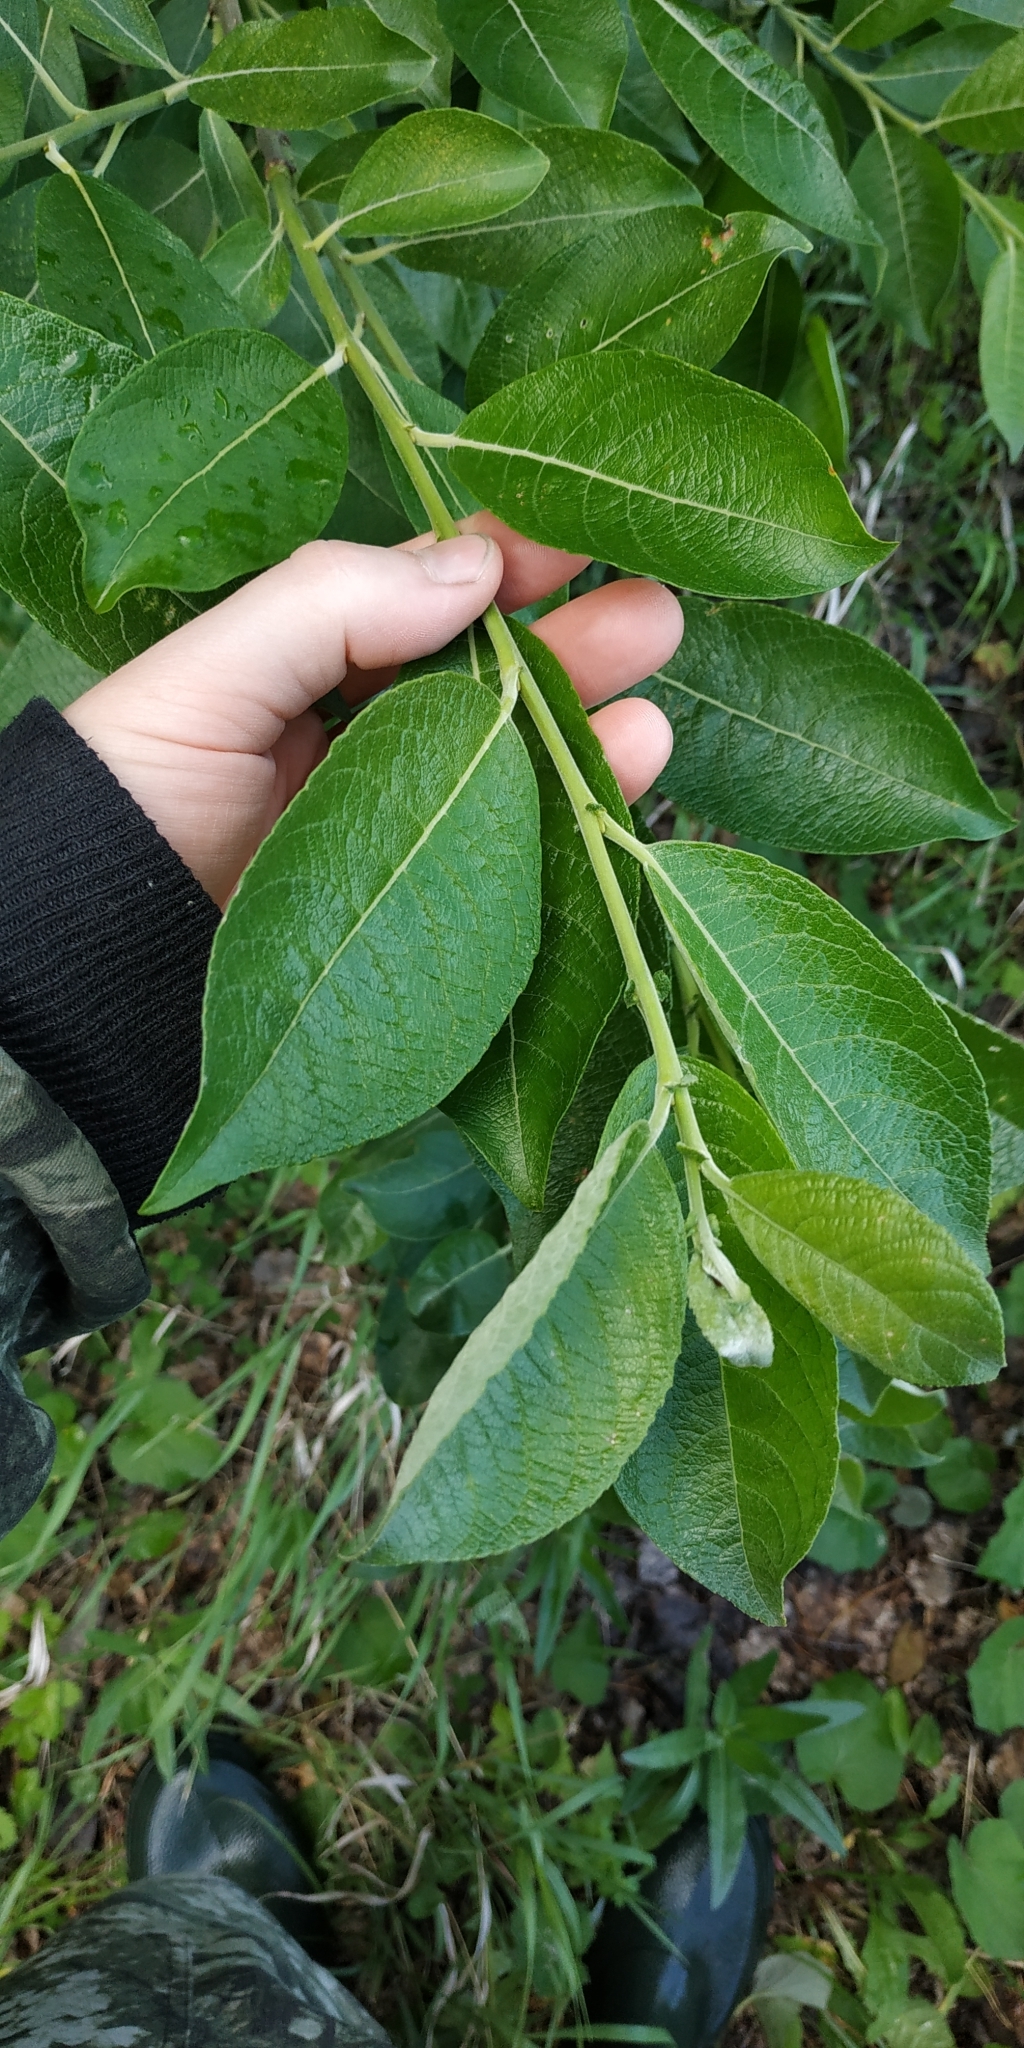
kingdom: Plantae
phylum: Tracheophyta
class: Magnoliopsida
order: Malpighiales
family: Salicaceae
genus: Salix
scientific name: Salix caprea
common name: Goat willow
